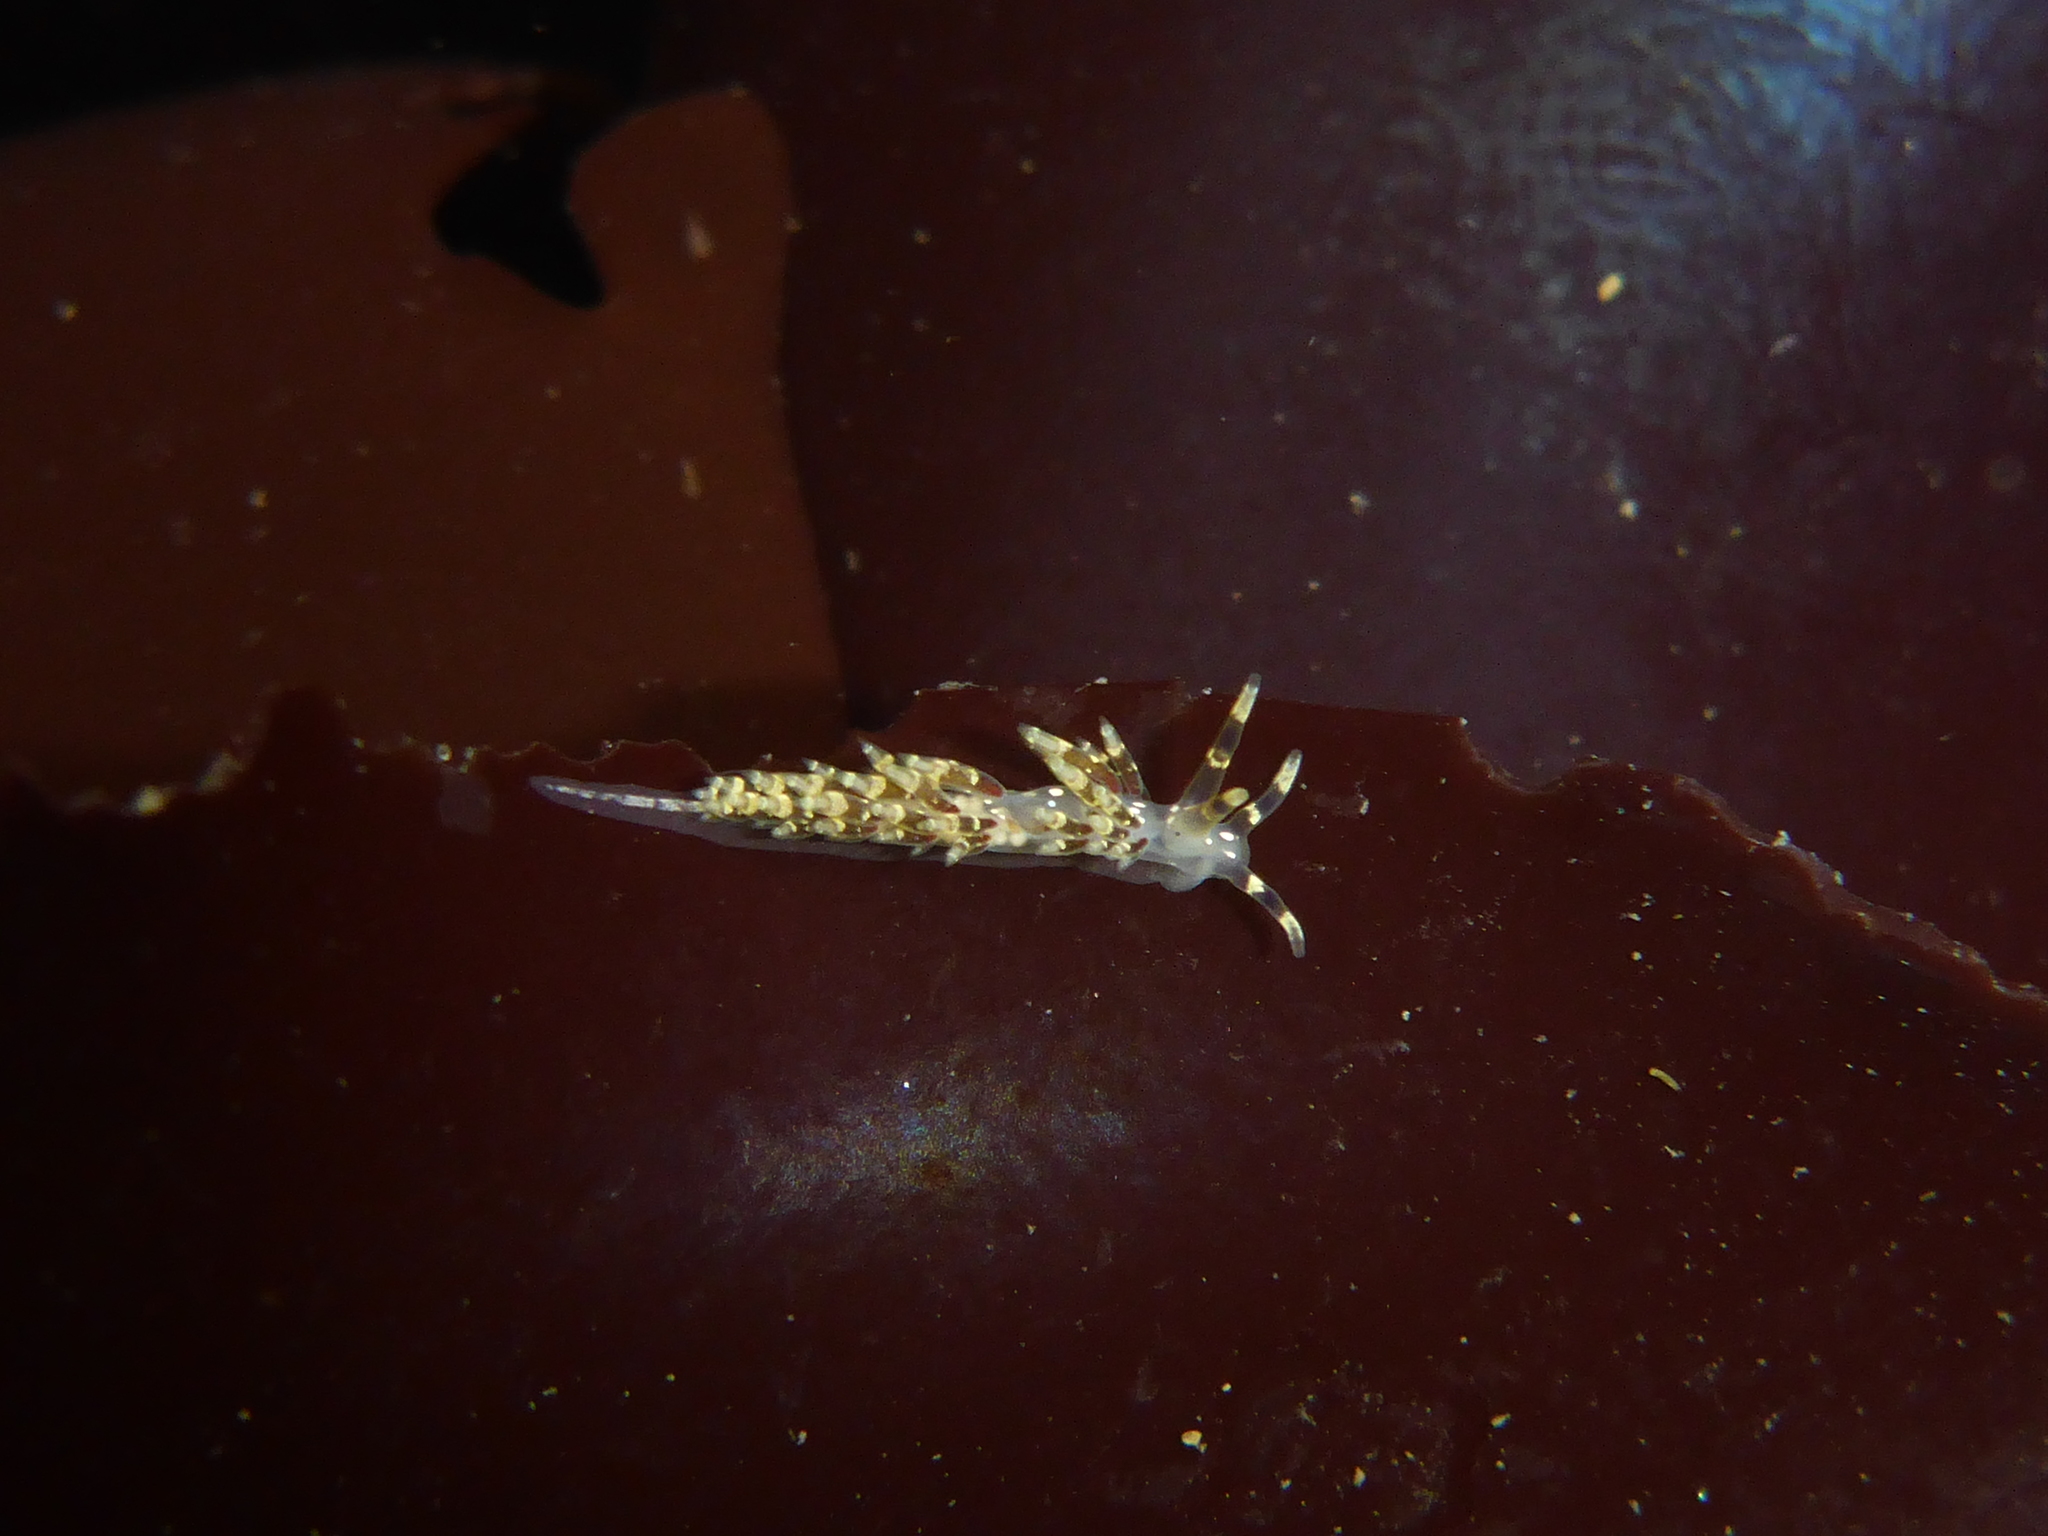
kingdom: Animalia
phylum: Mollusca
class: Gastropoda
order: Nudibranchia
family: Abronicidae
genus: Abronica
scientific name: Abronica abronia
